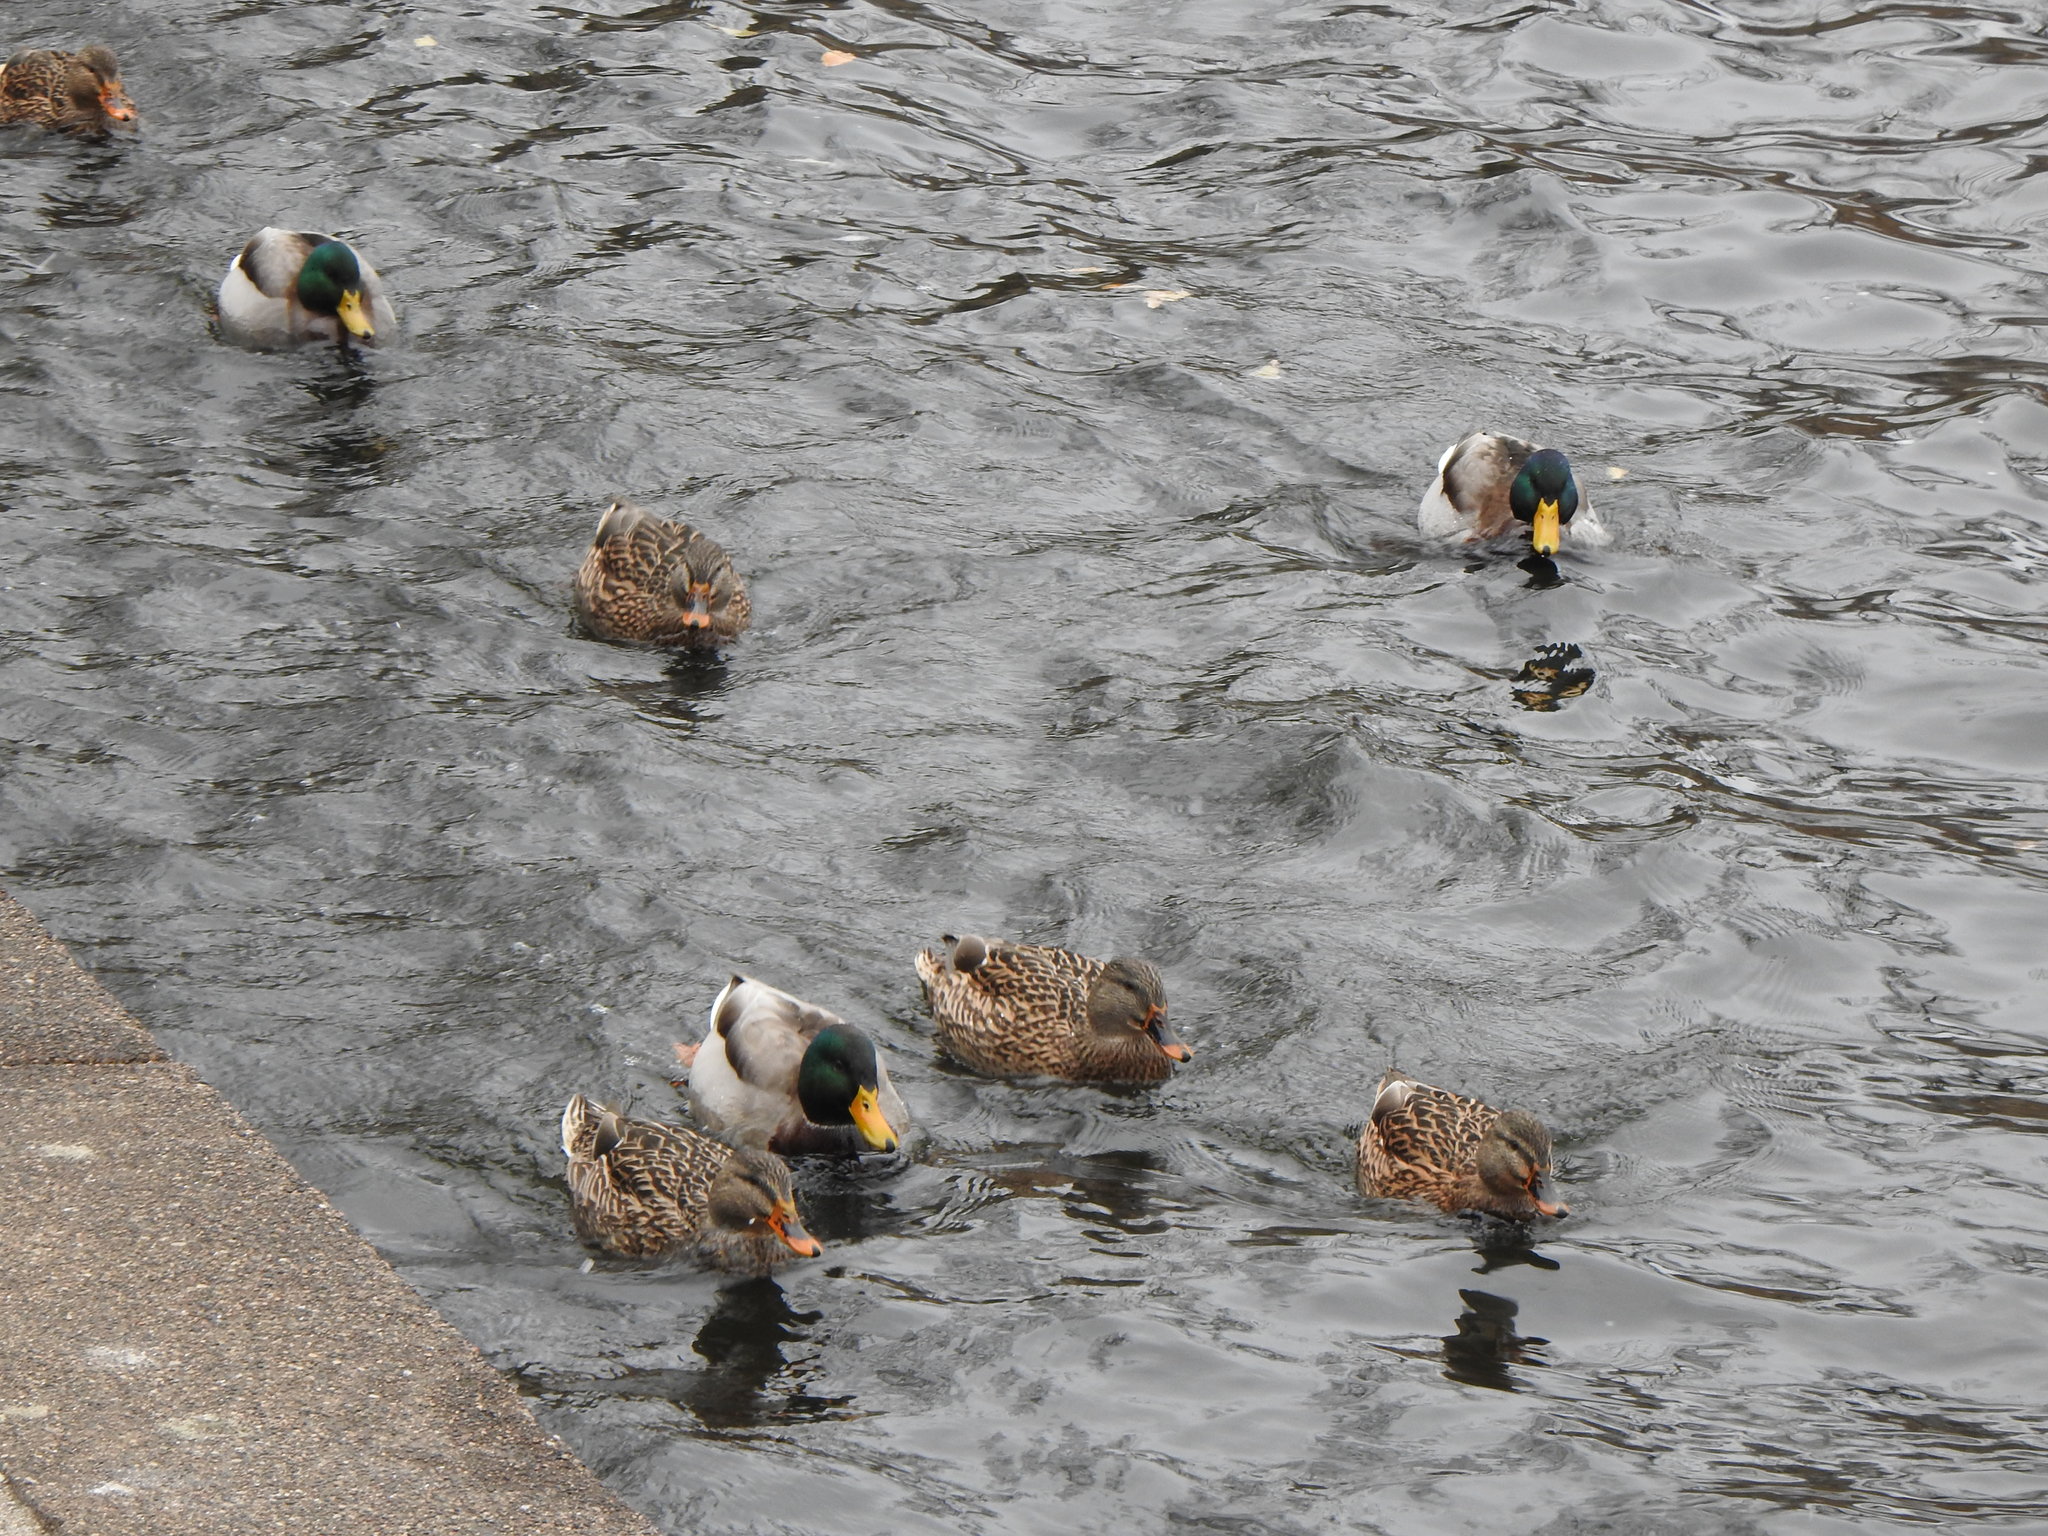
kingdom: Animalia
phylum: Chordata
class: Aves
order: Anseriformes
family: Anatidae
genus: Anas
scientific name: Anas platyrhynchos
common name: Mallard
